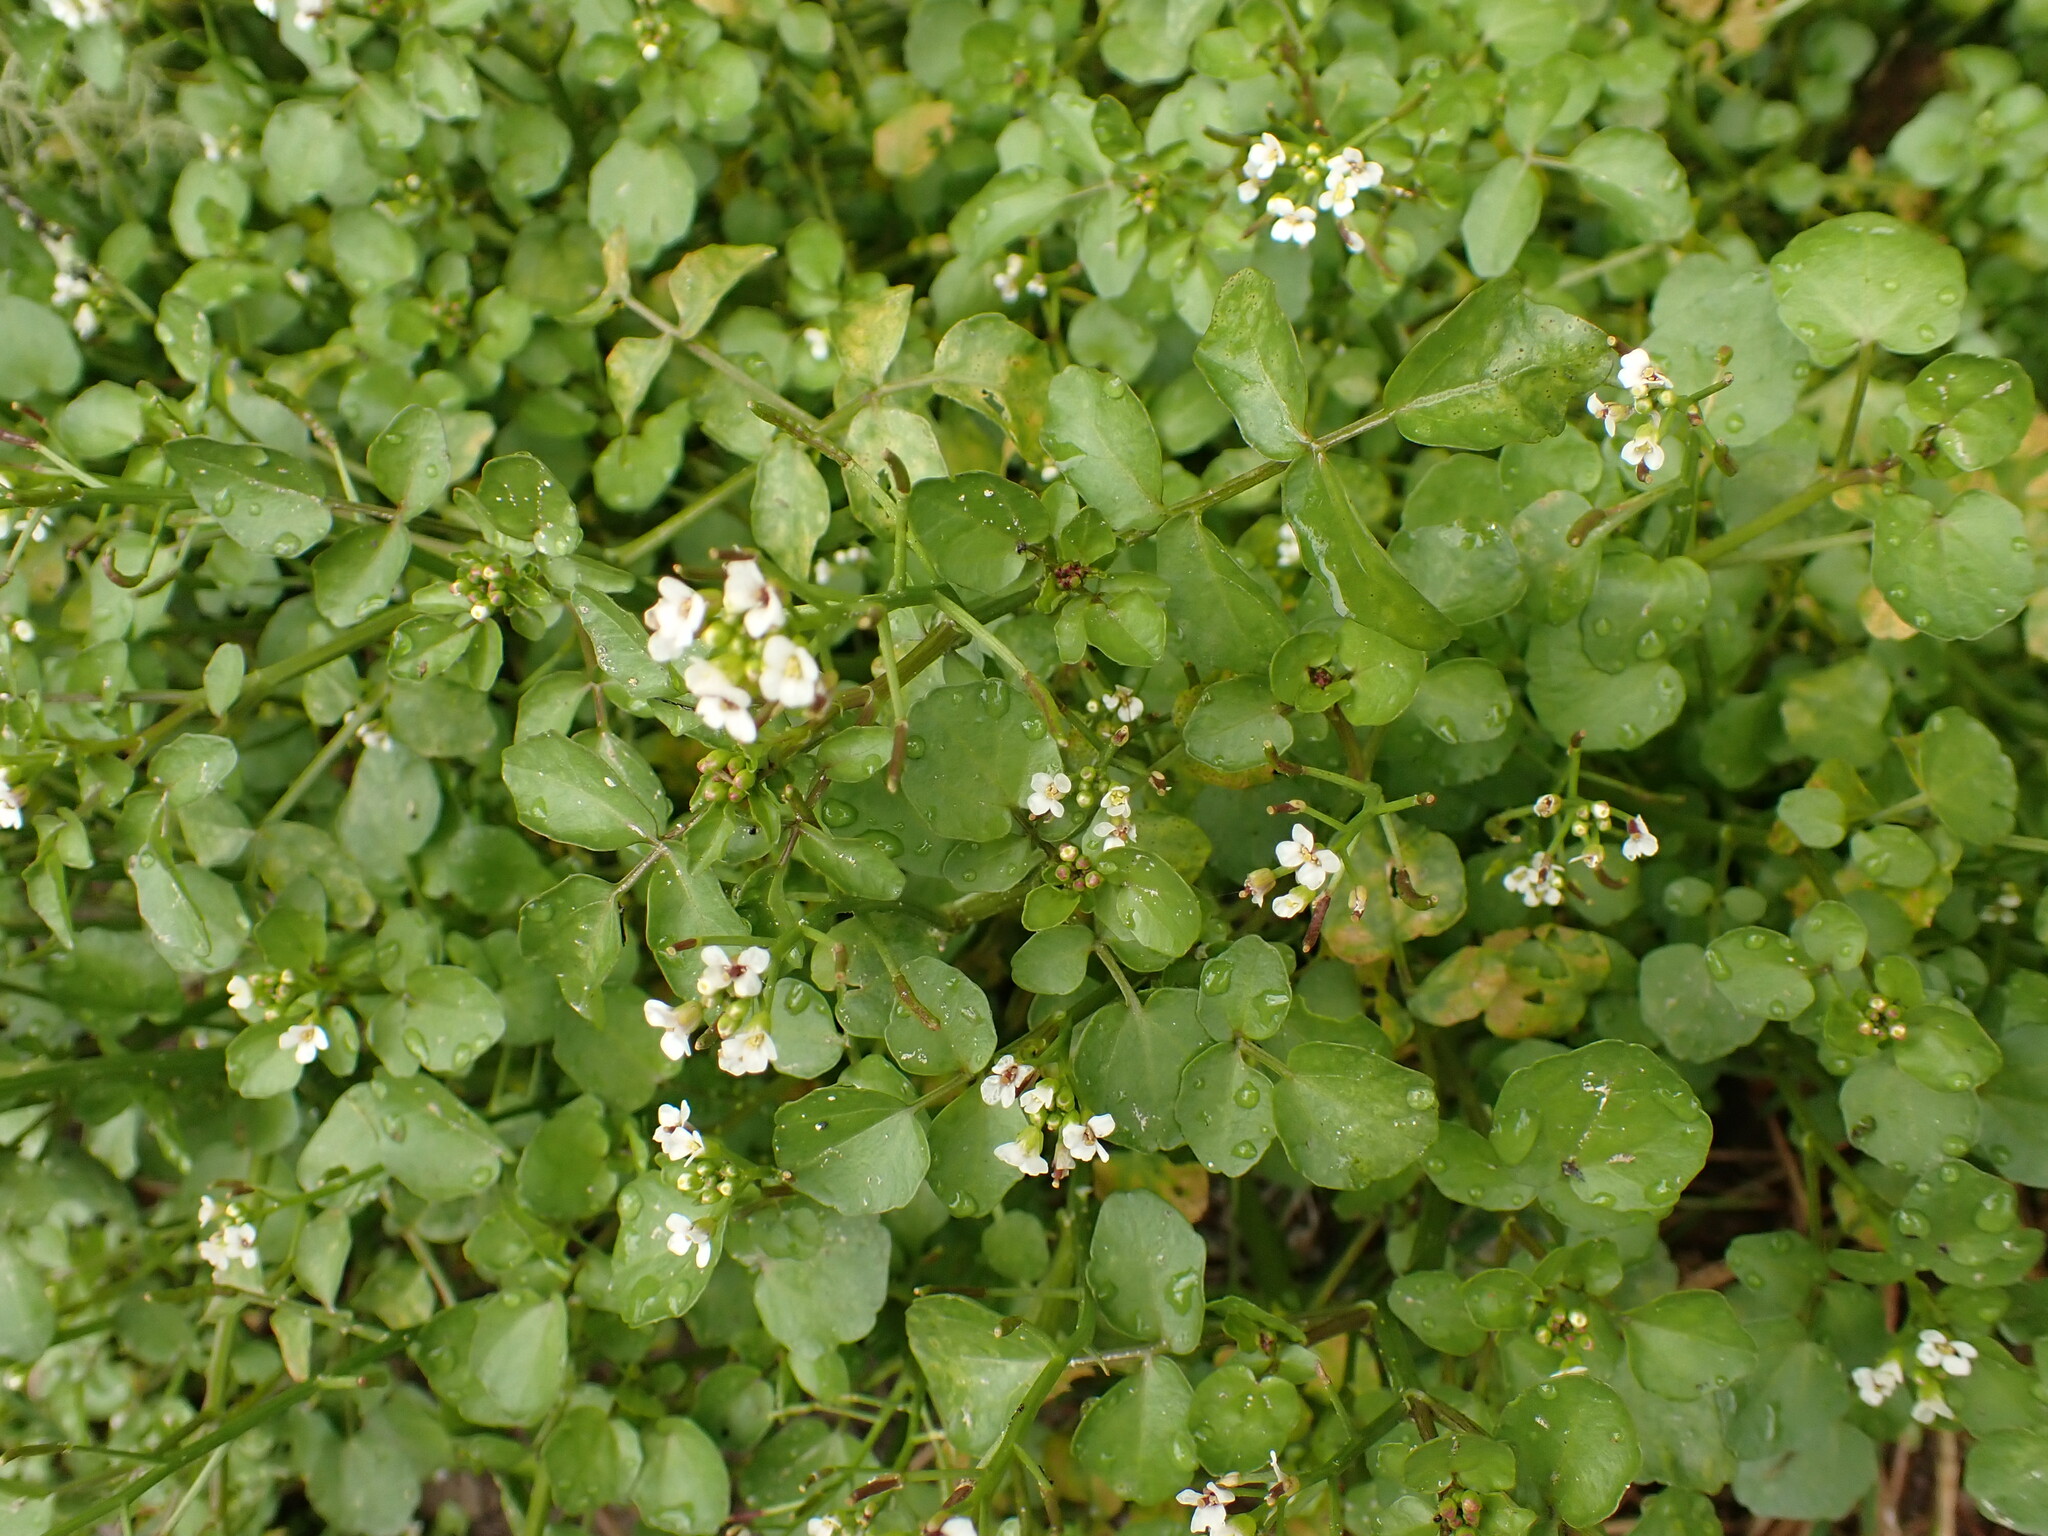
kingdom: Plantae
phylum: Tracheophyta
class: Magnoliopsida
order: Brassicales
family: Brassicaceae
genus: Nasturtium
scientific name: Nasturtium officinale
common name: Watercress
